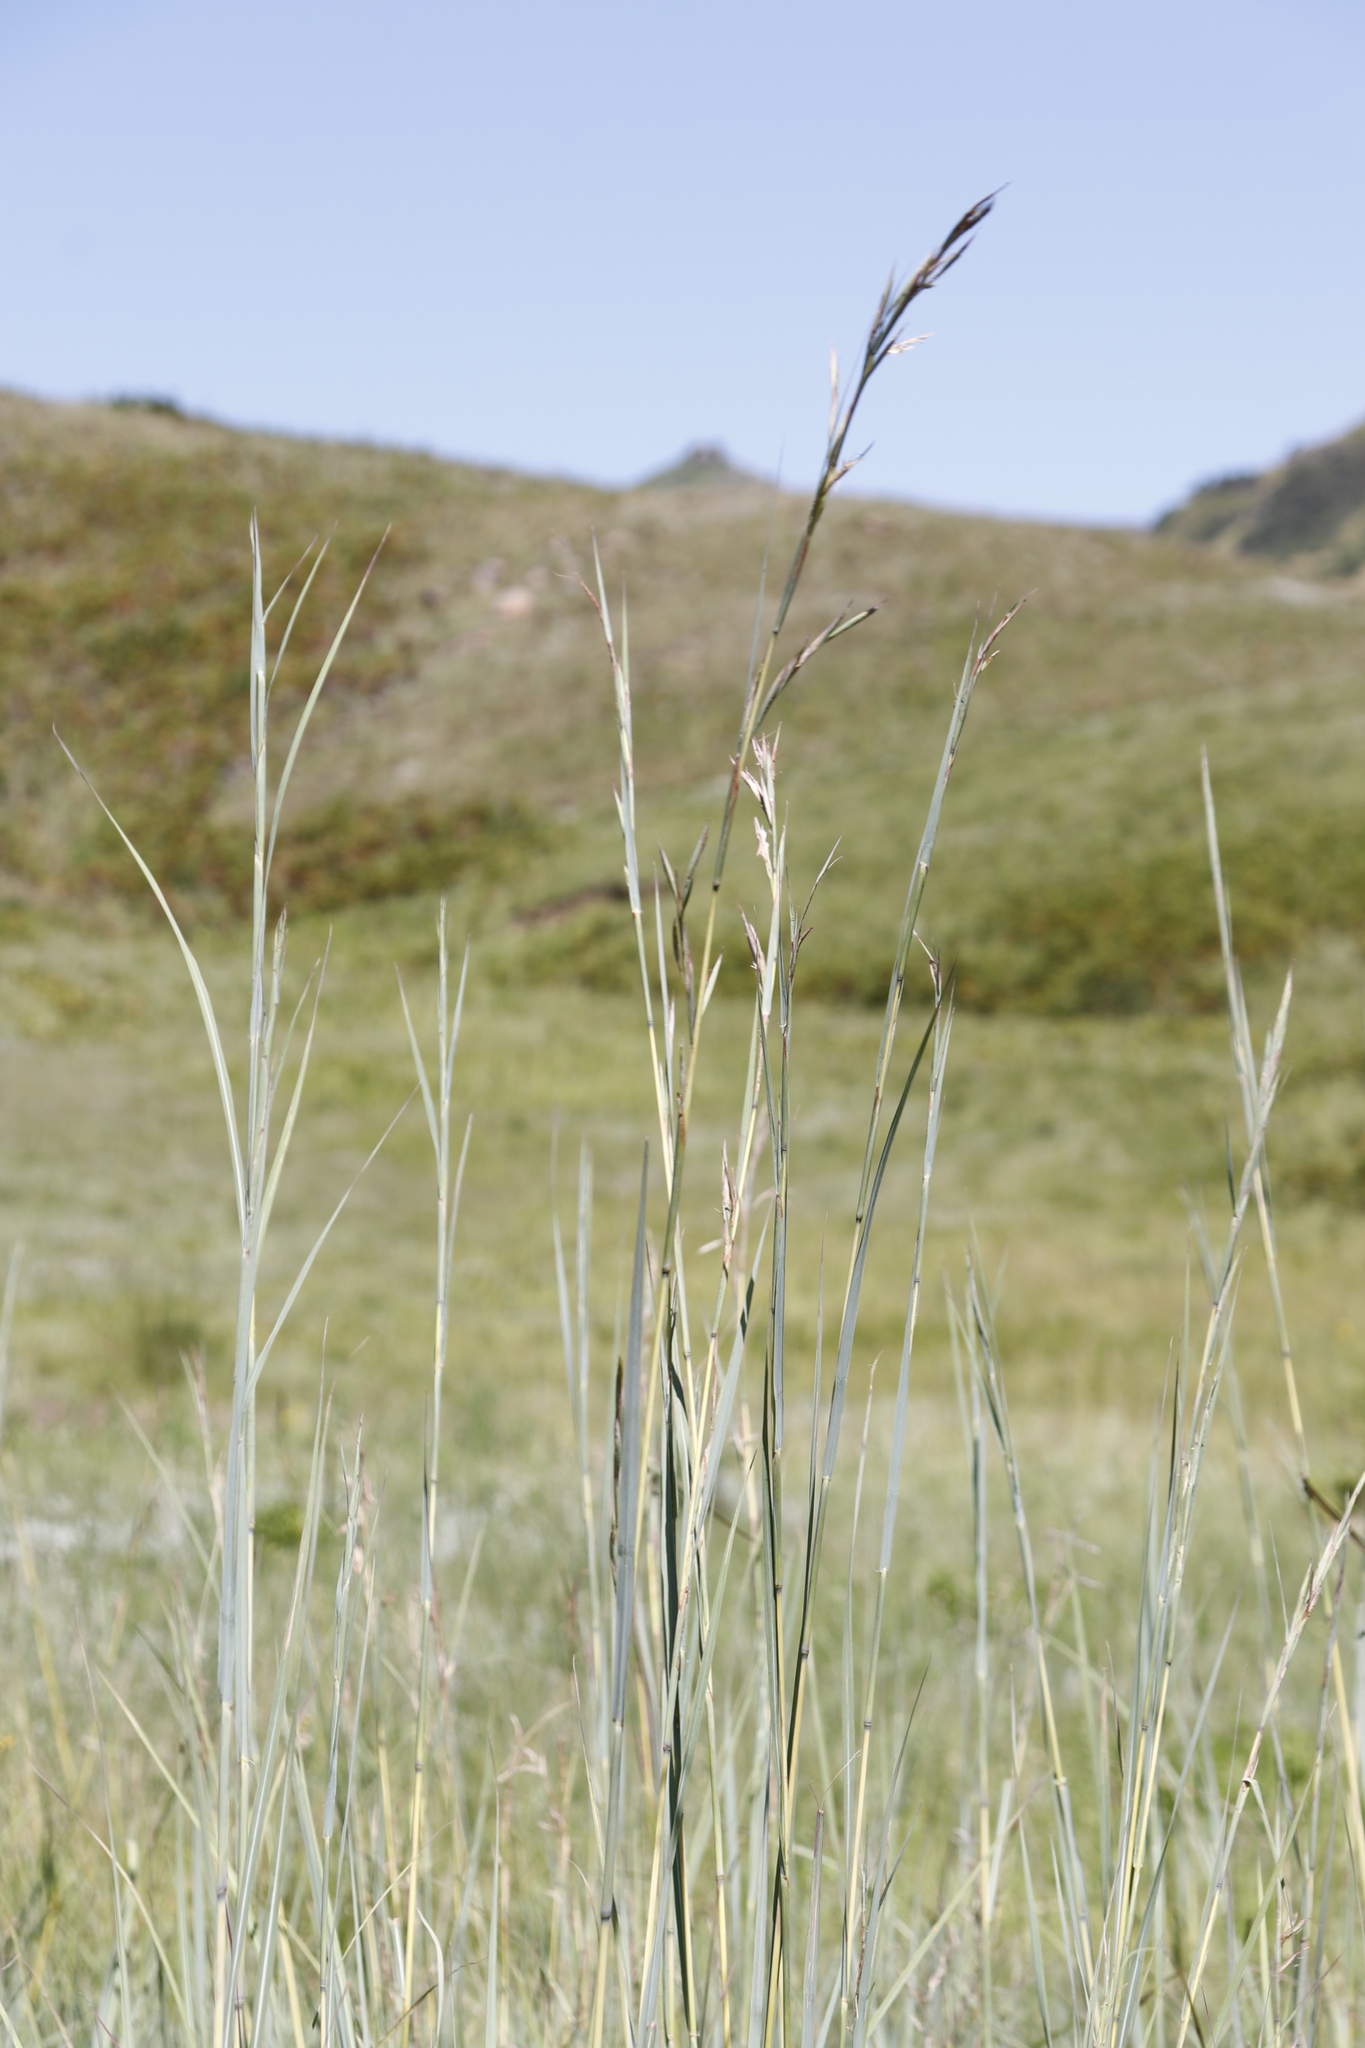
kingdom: Plantae
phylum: Tracheophyta
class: Liliopsida
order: Poales
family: Poaceae
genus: Hyparrhenia
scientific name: Hyparrhenia tamba
